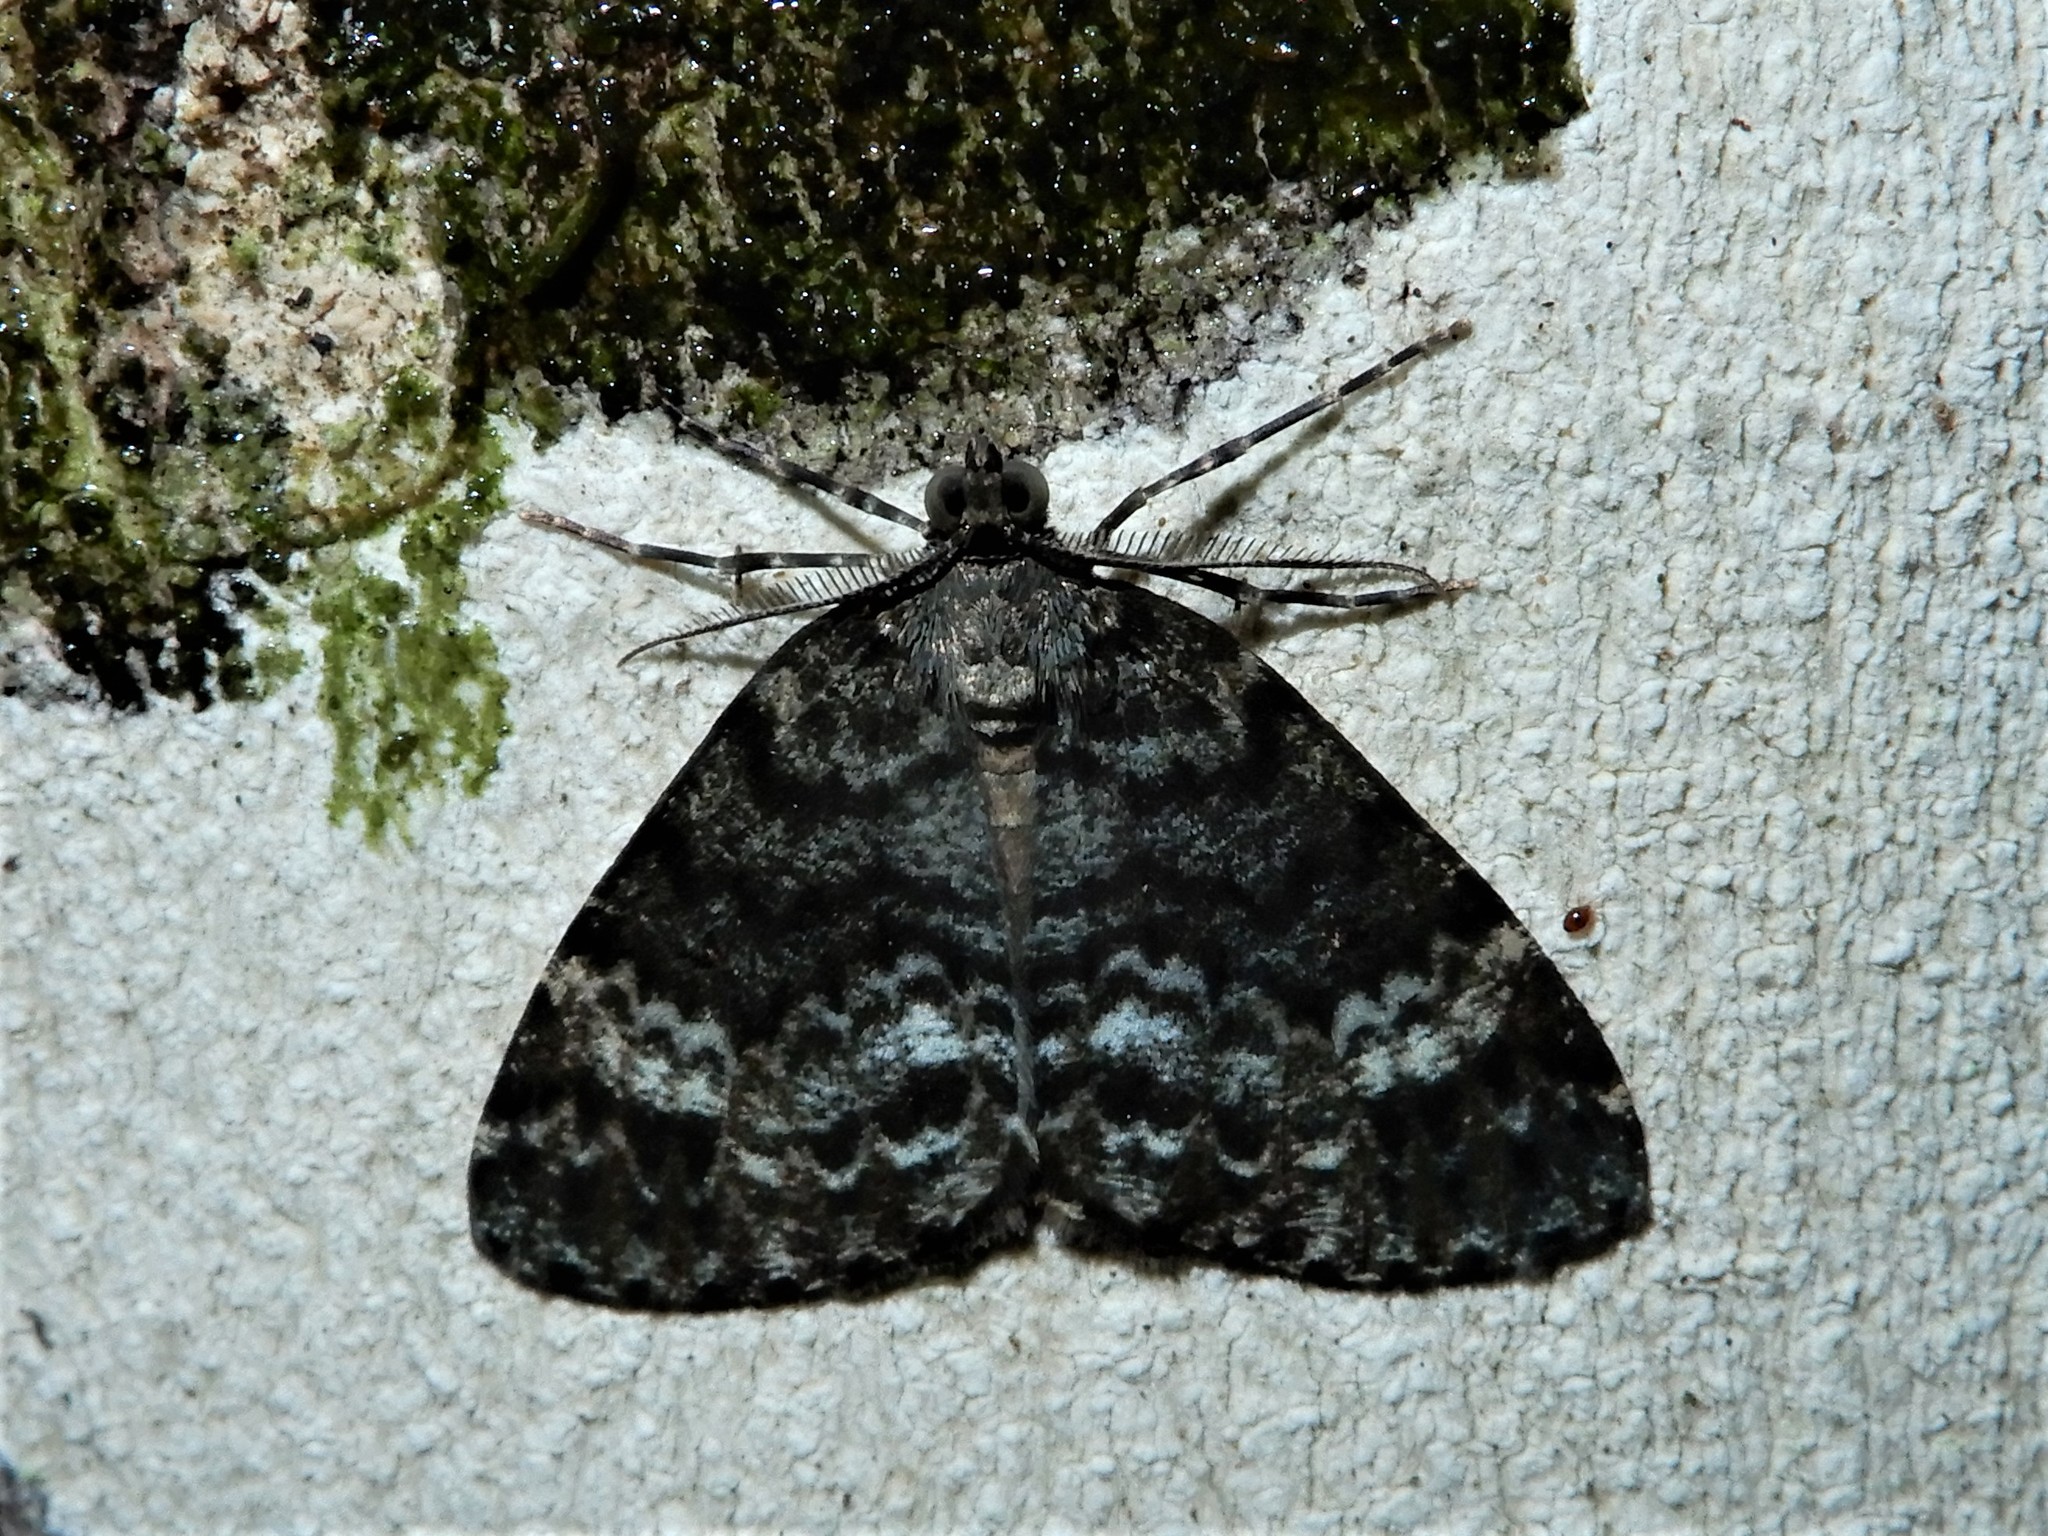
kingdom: Animalia
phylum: Arthropoda
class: Insecta
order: Lepidoptera
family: Geometridae
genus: Pseudocoremia
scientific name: Pseudocoremia indistincta
